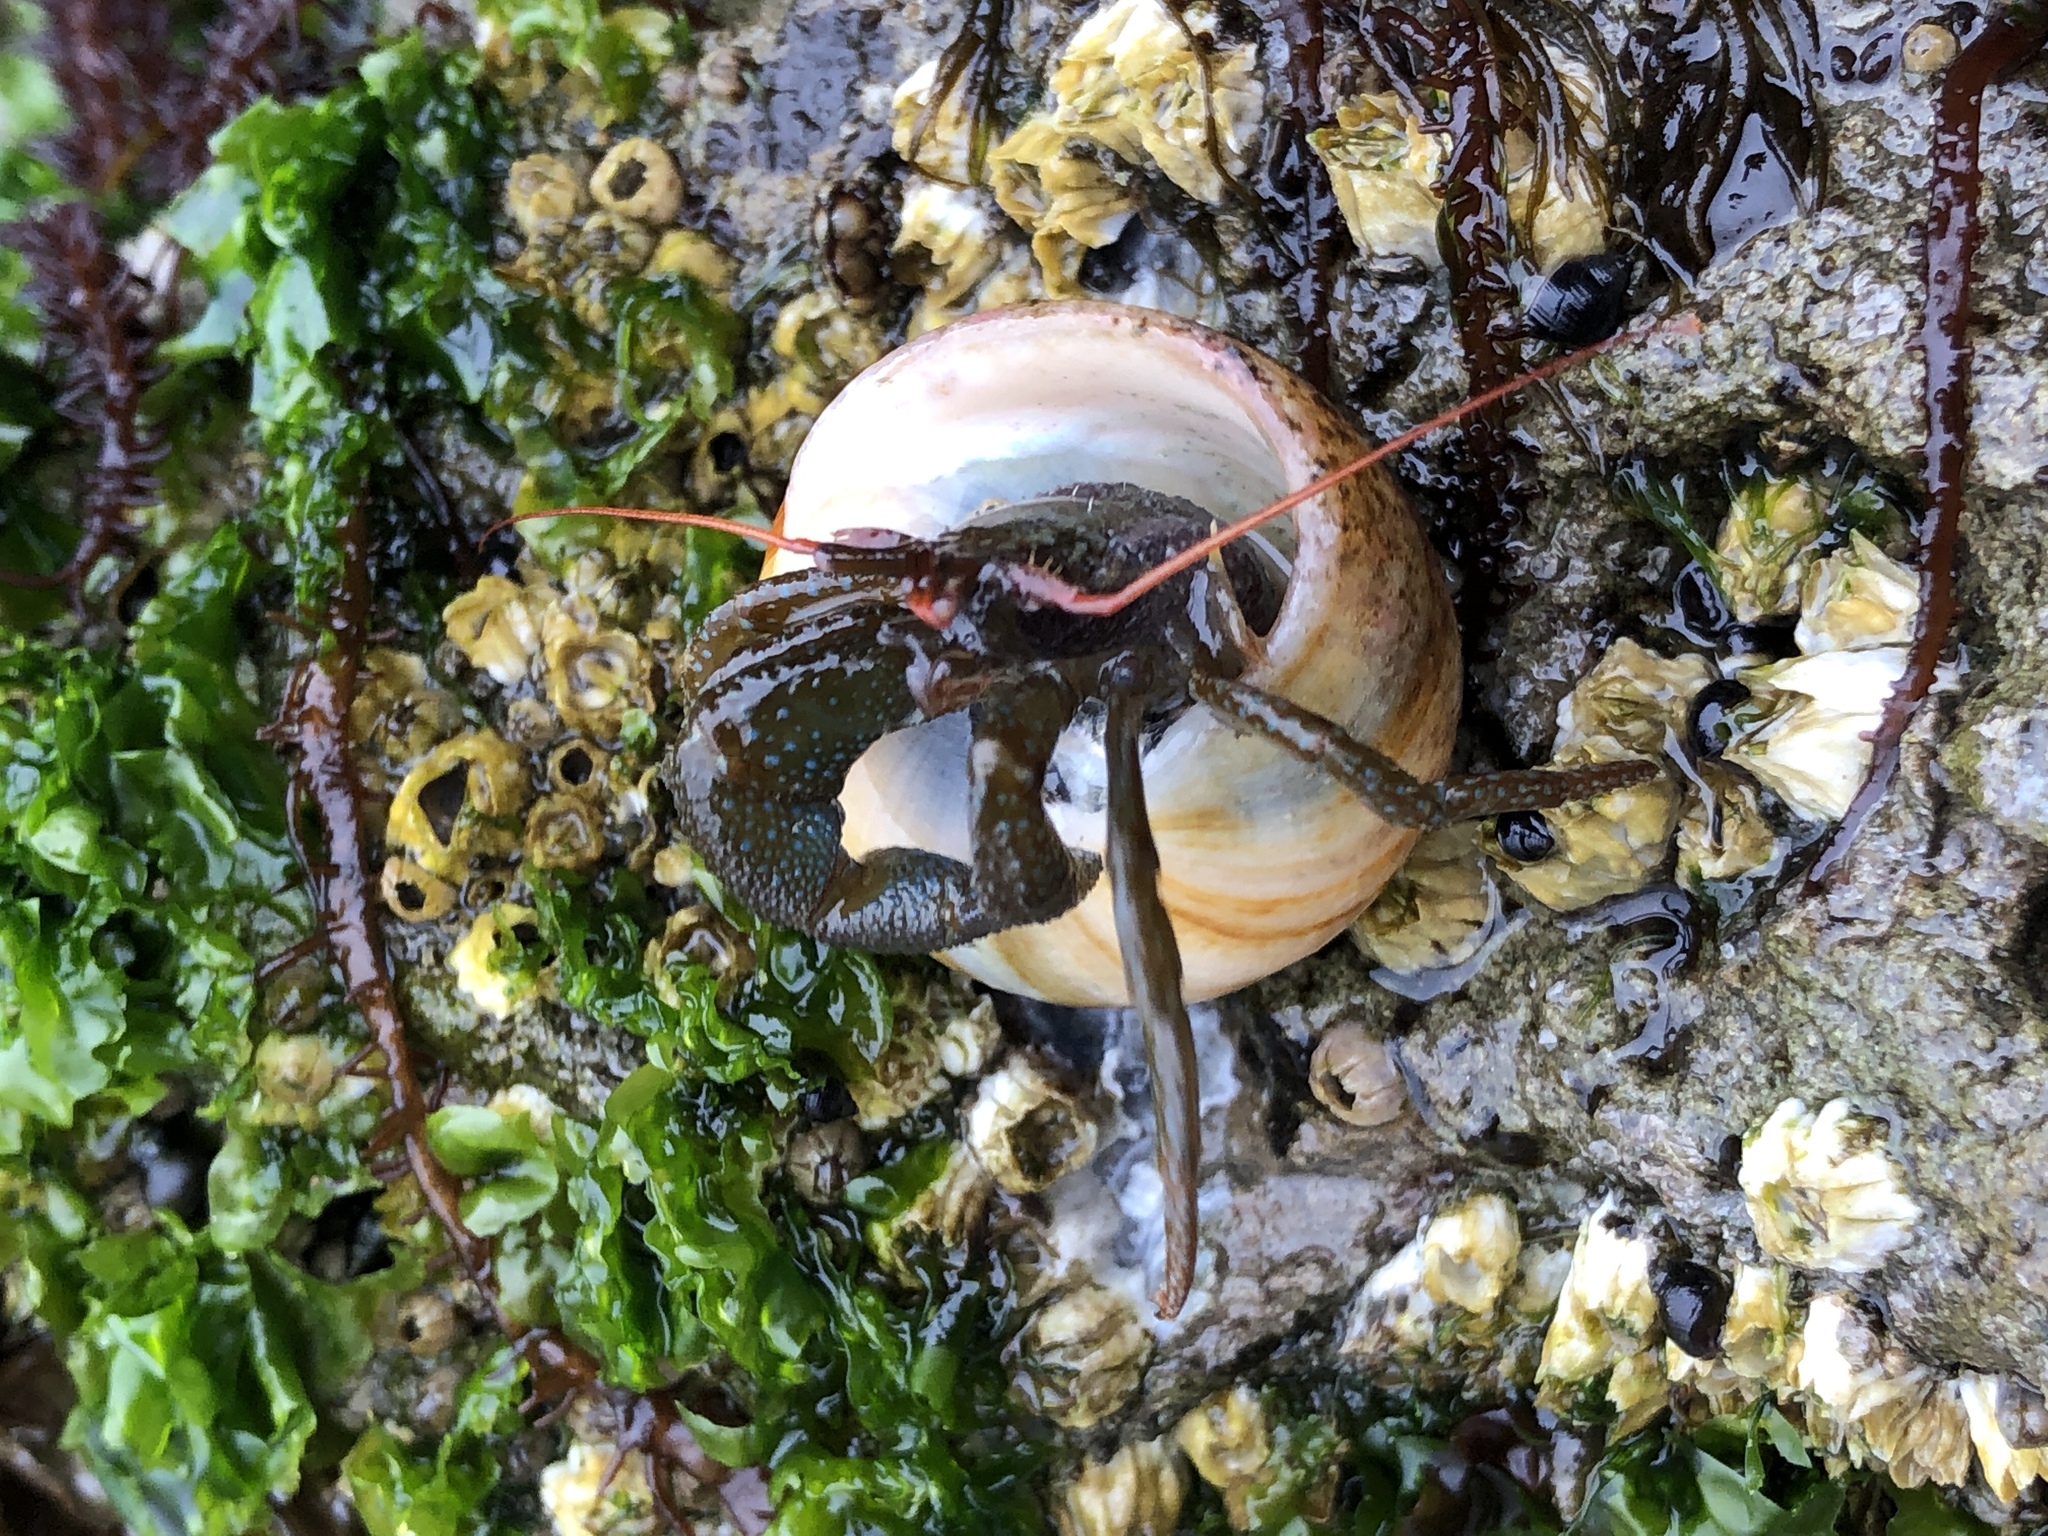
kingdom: Animalia
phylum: Arthropoda
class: Malacostraca
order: Decapoda
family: Paguridae
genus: Pagurus
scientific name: Pagurus granosimanus
